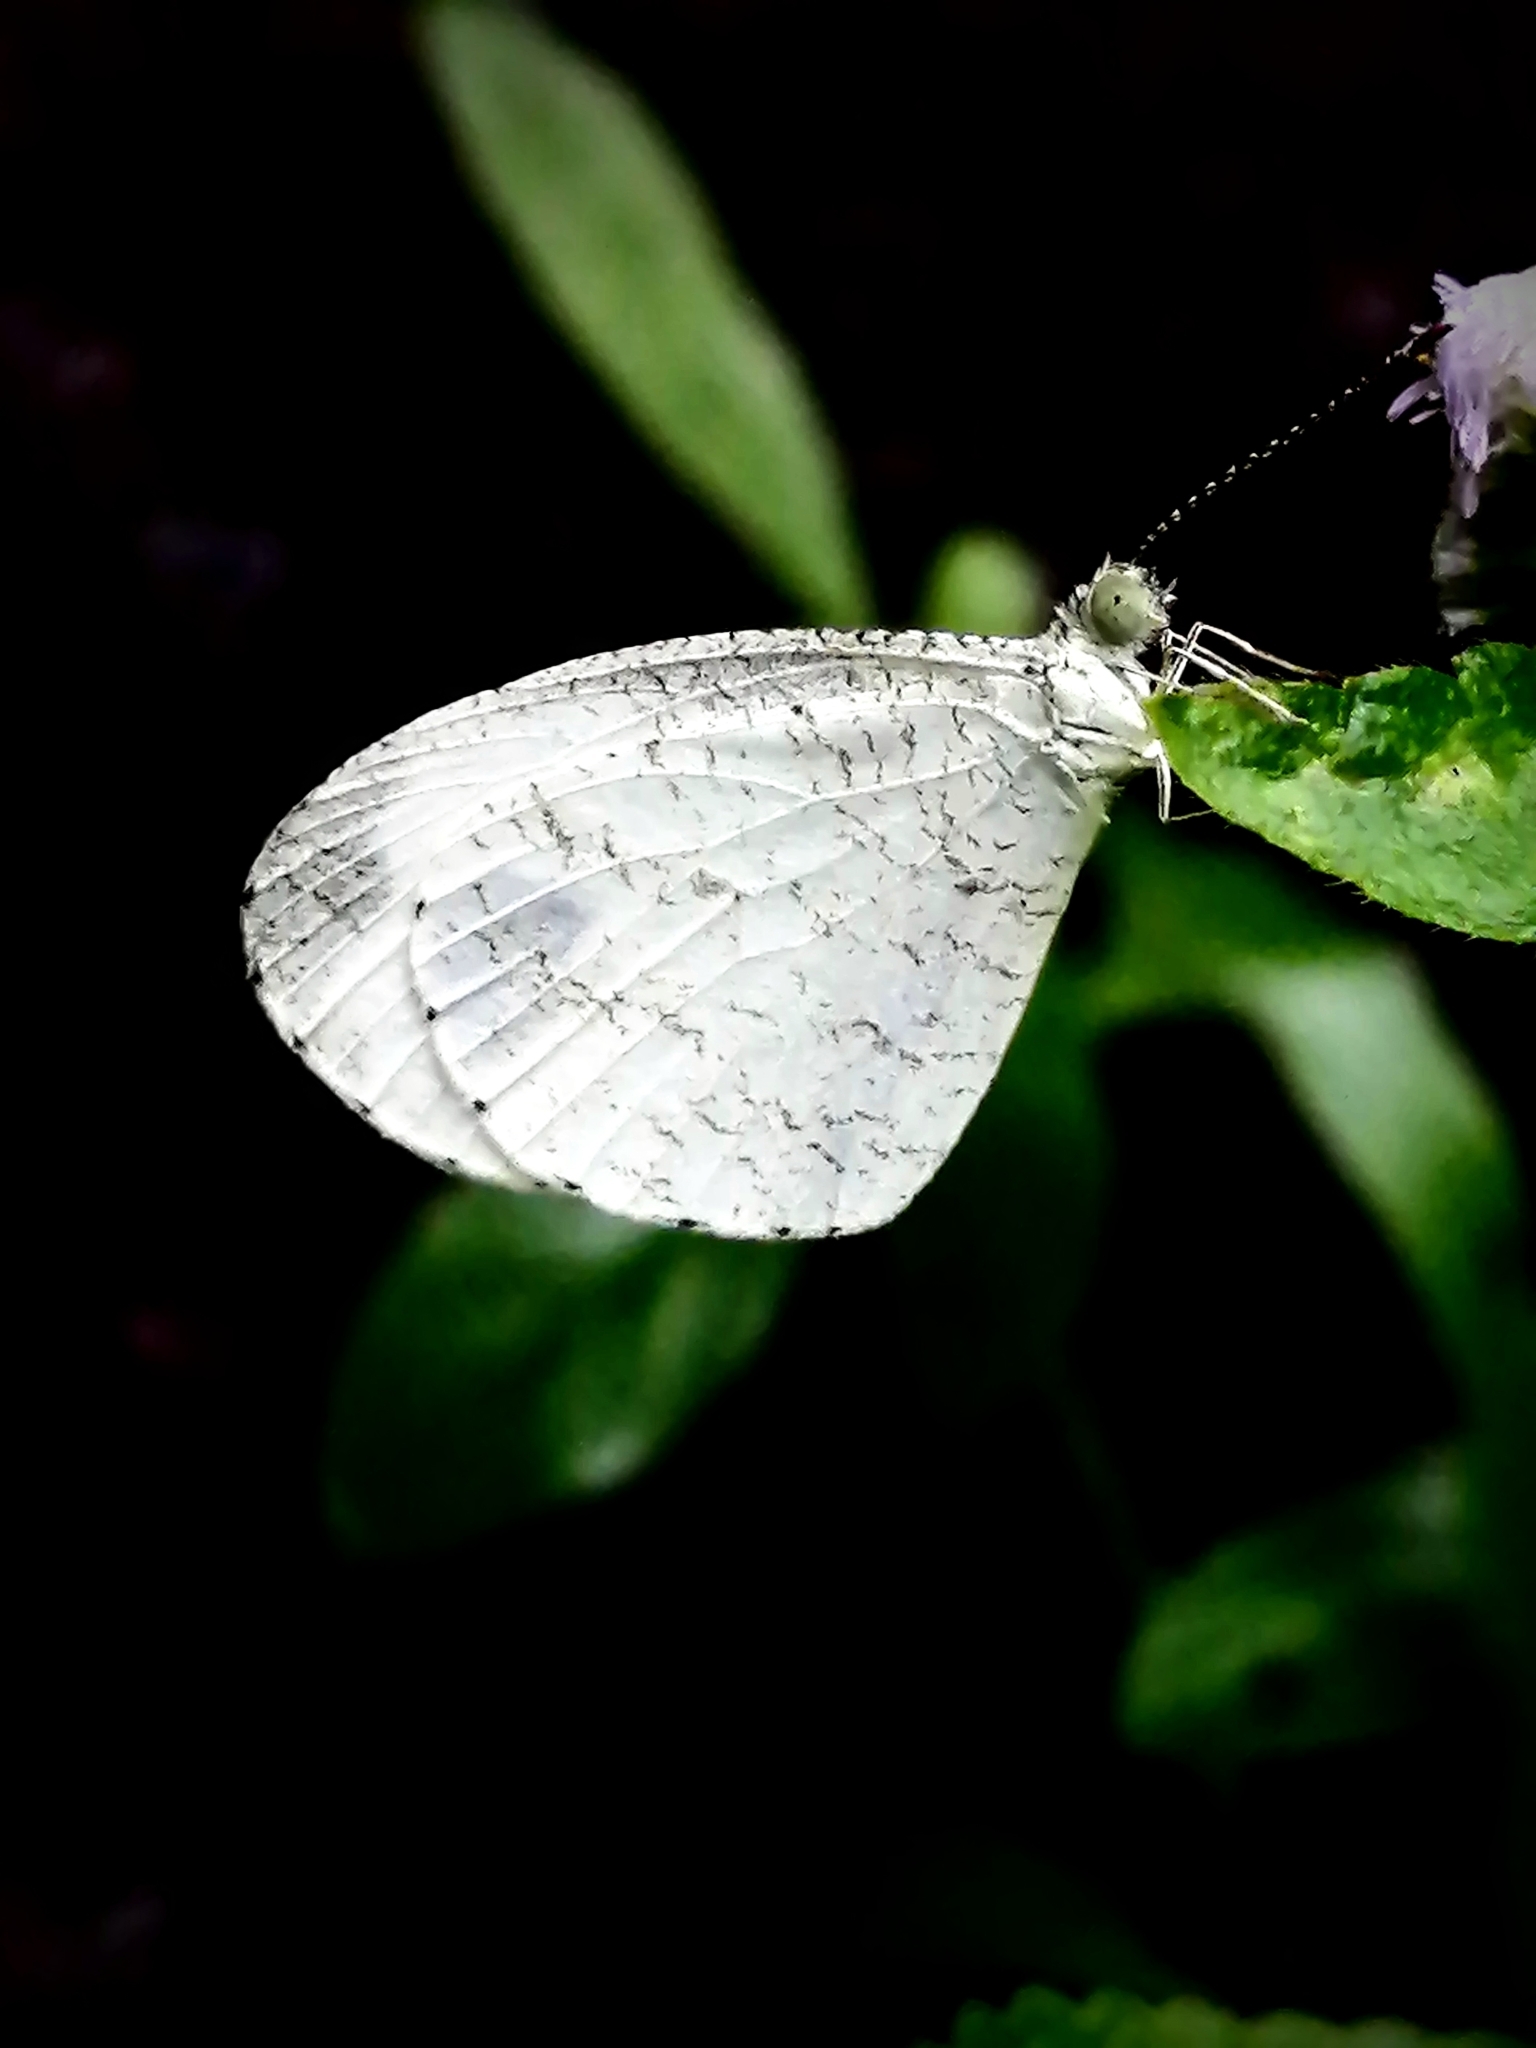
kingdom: Animalia
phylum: Arthropoda
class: Insecta
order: Lepidoptera
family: Pieridae
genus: Leptosia
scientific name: Leptosia nina
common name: Psyche
